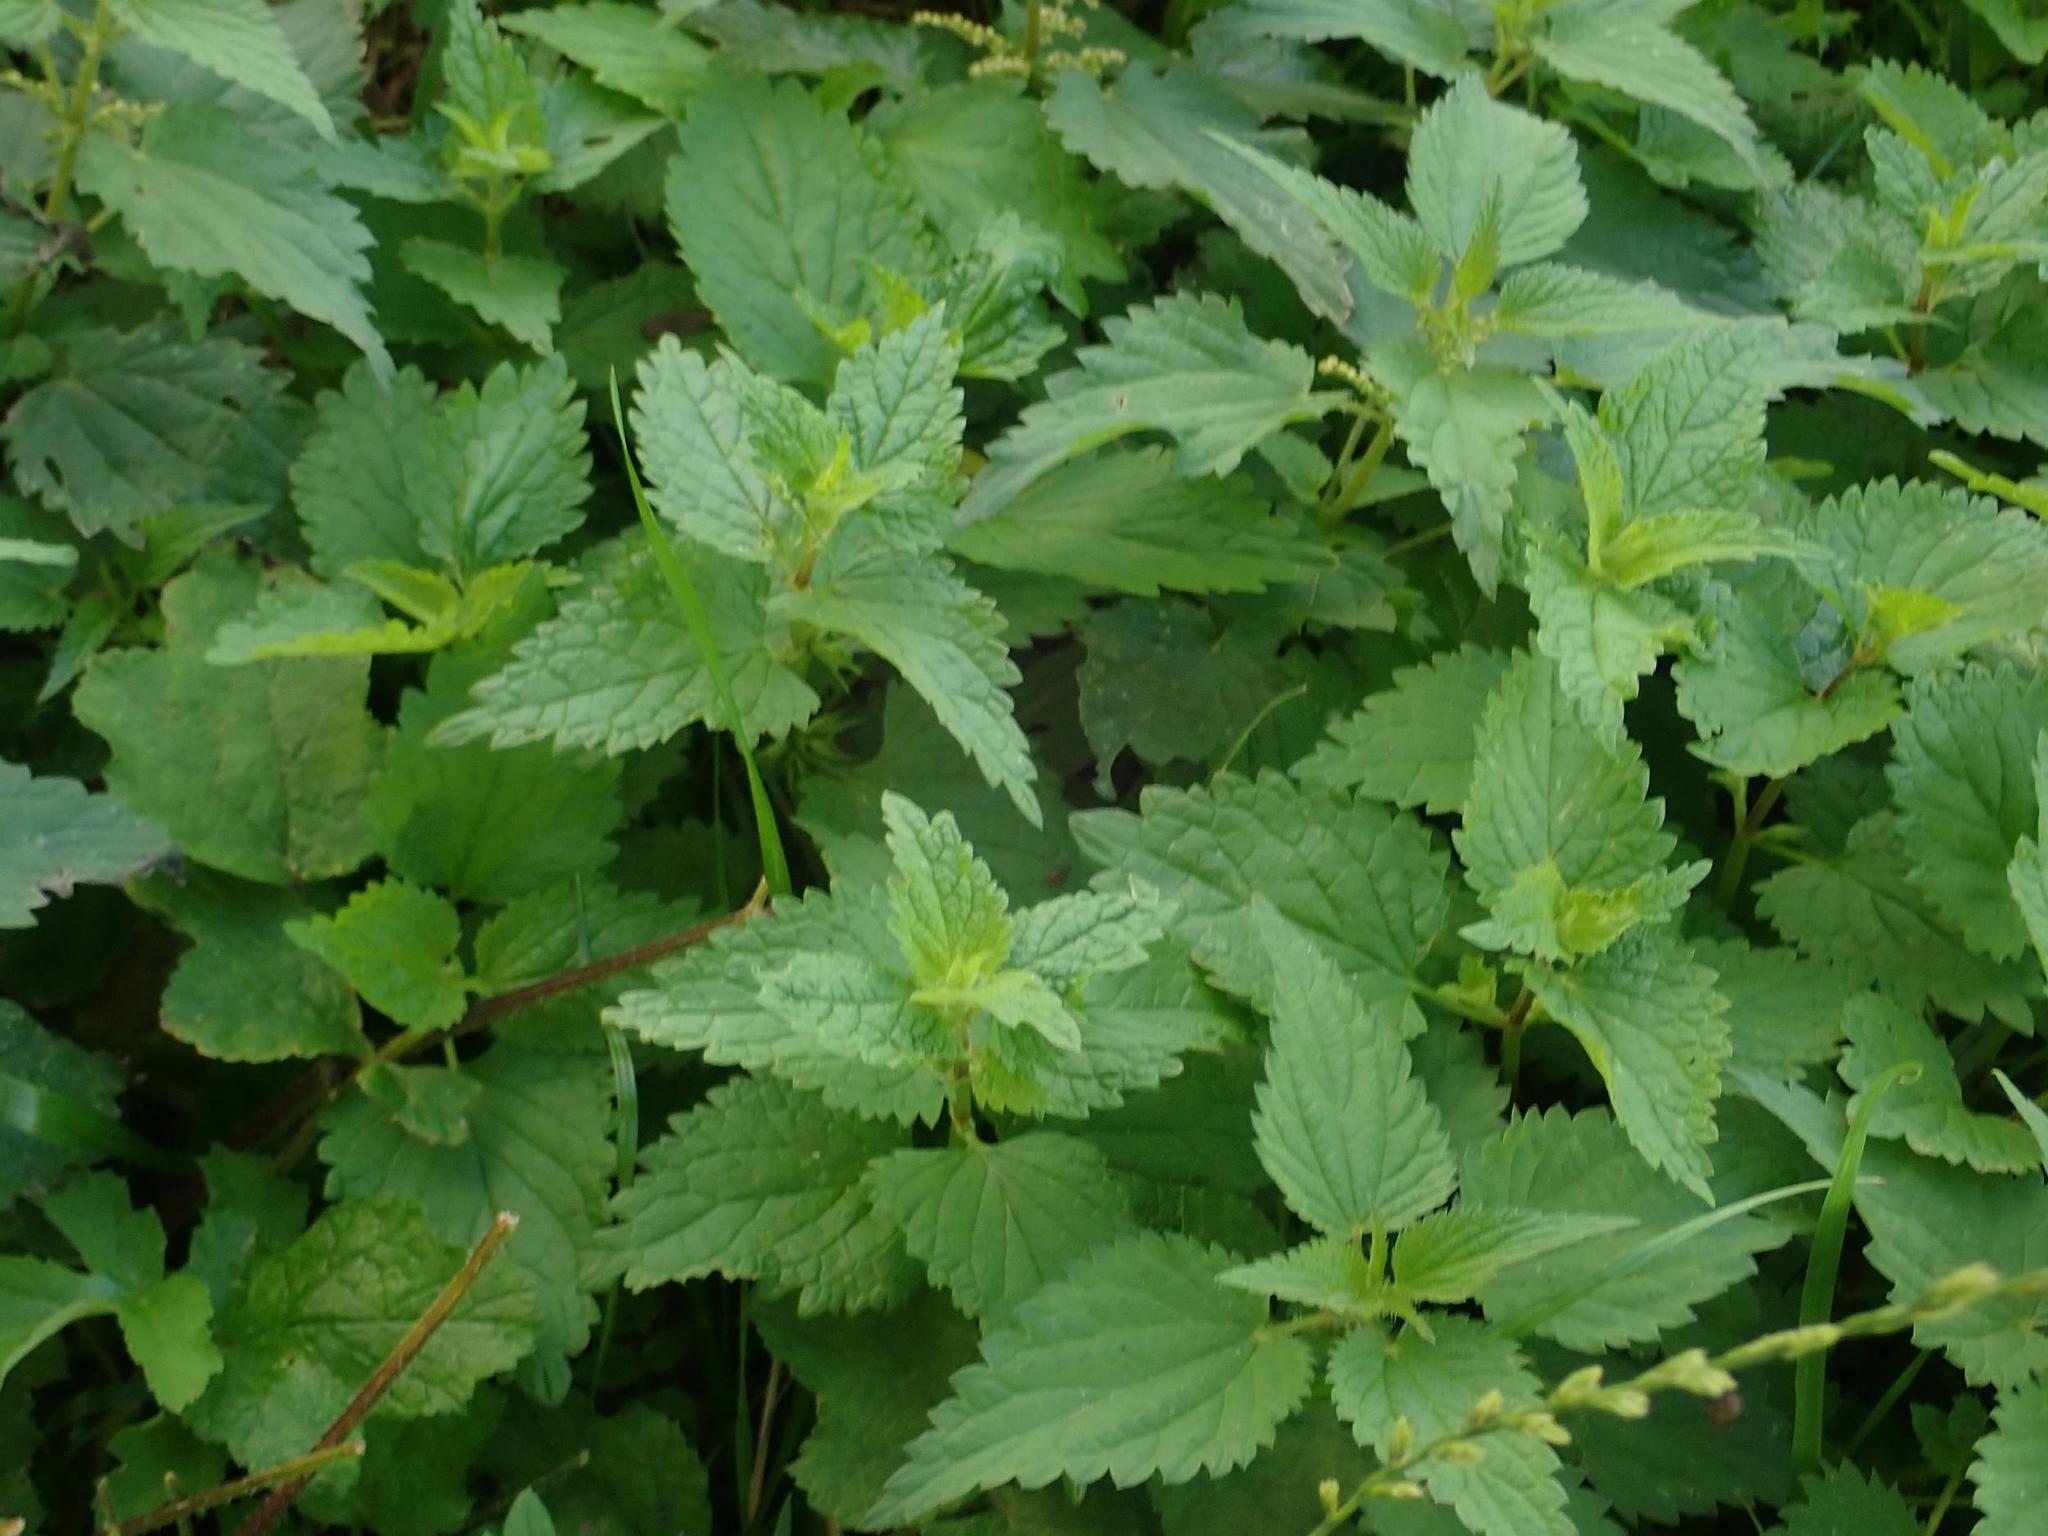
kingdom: Plantae
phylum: Tracheophyta
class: Magnoliopsida
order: Rosales
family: Urticaceae
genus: Urtica
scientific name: Urtica dioica
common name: Common nettle
